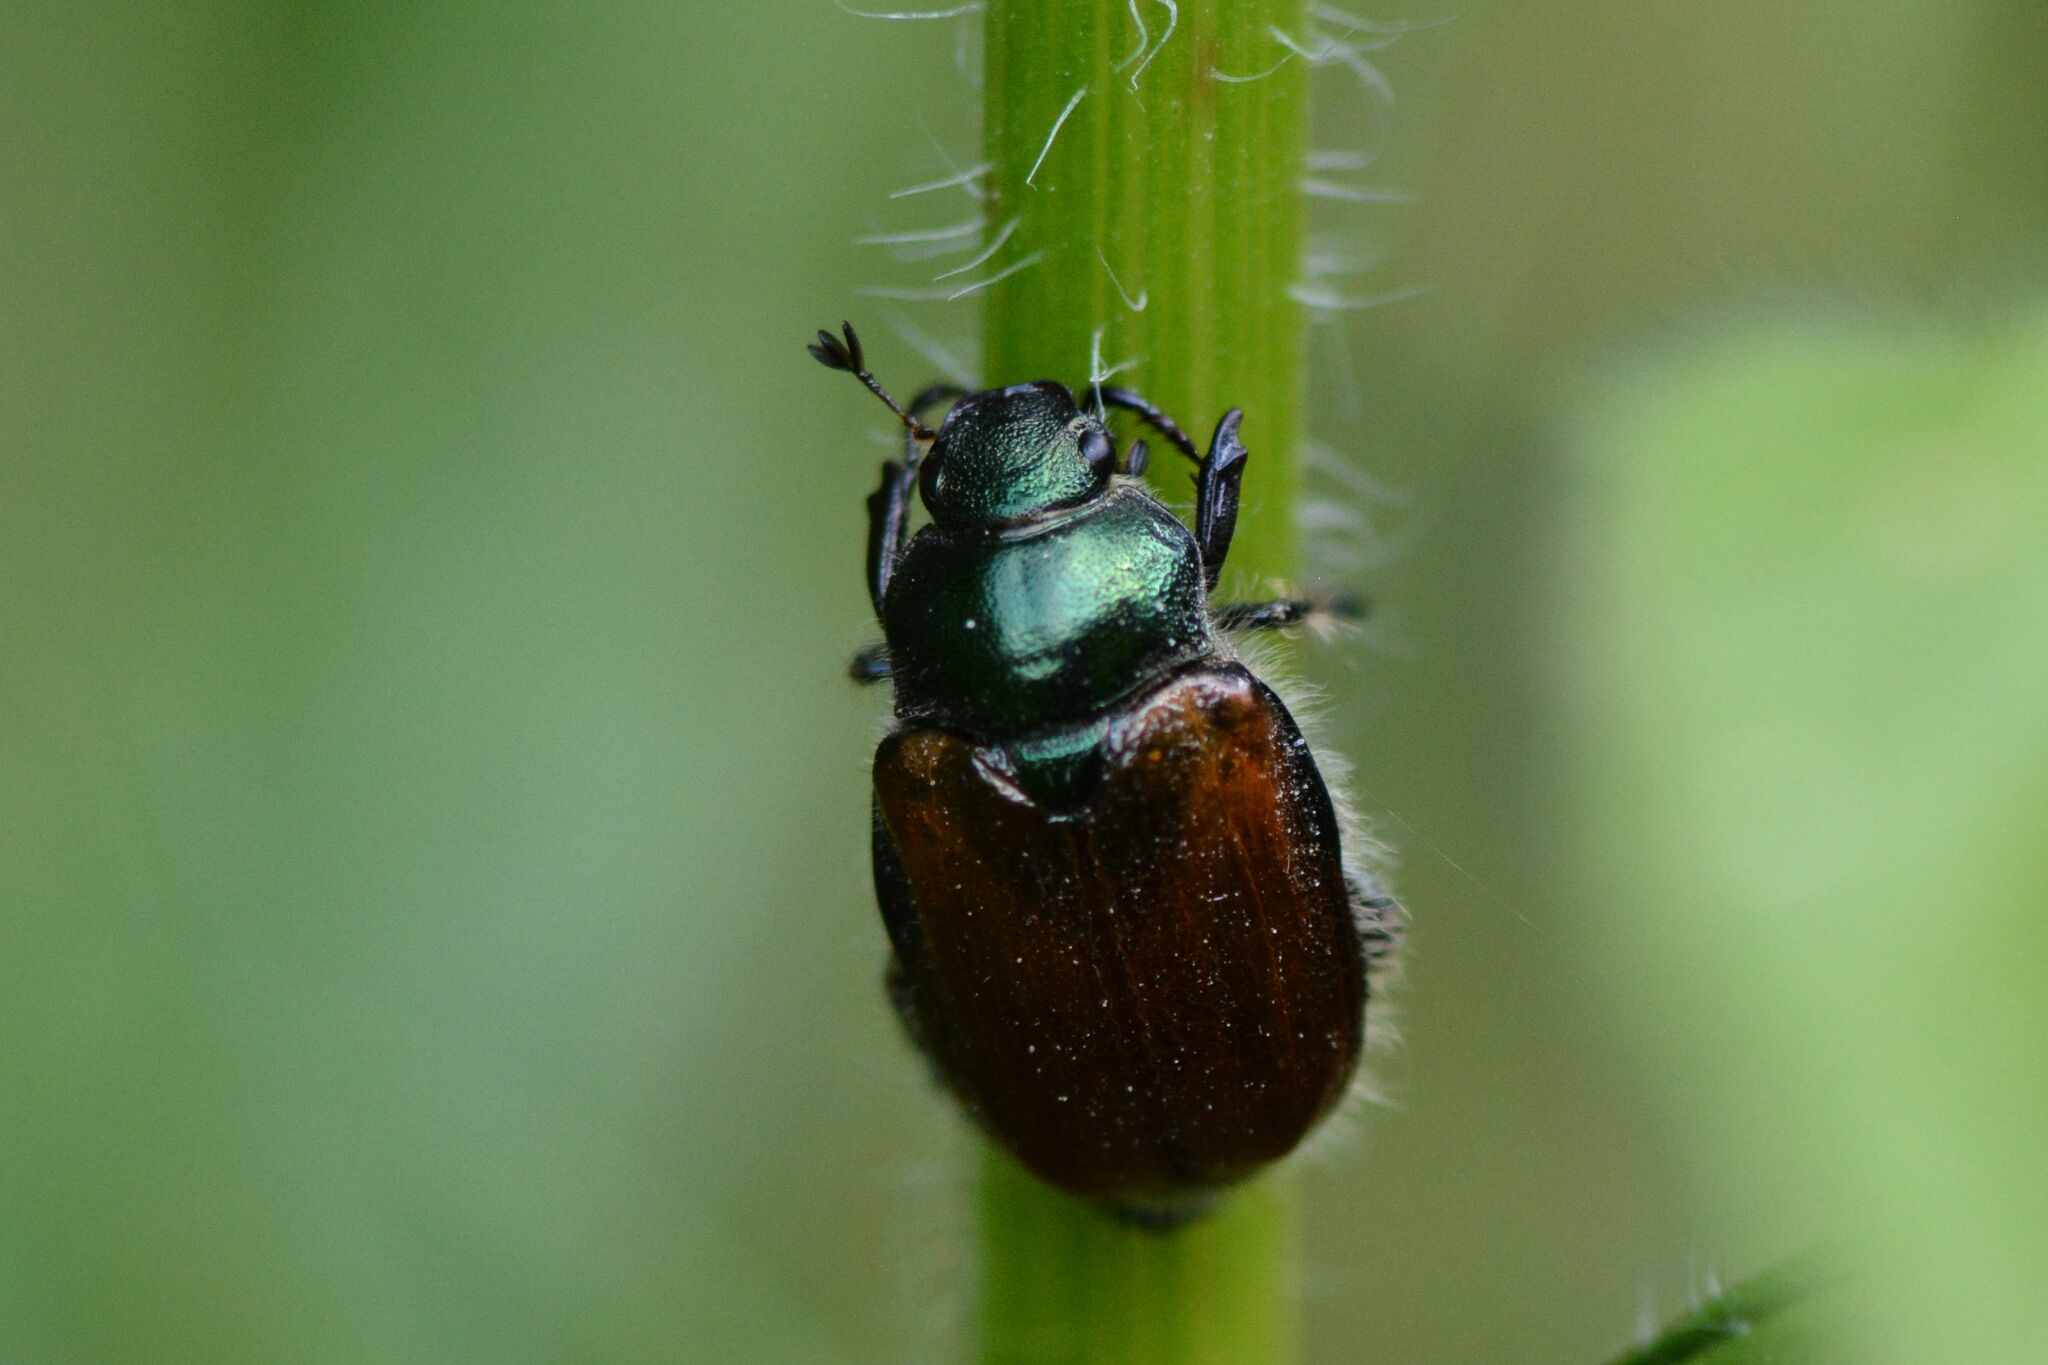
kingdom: Animalia
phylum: Arthropoda
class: Insecta
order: Coleoptera
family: Scarabaeidae
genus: Phyllopertha
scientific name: Phyllopertha horticola
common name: Garden chafer
